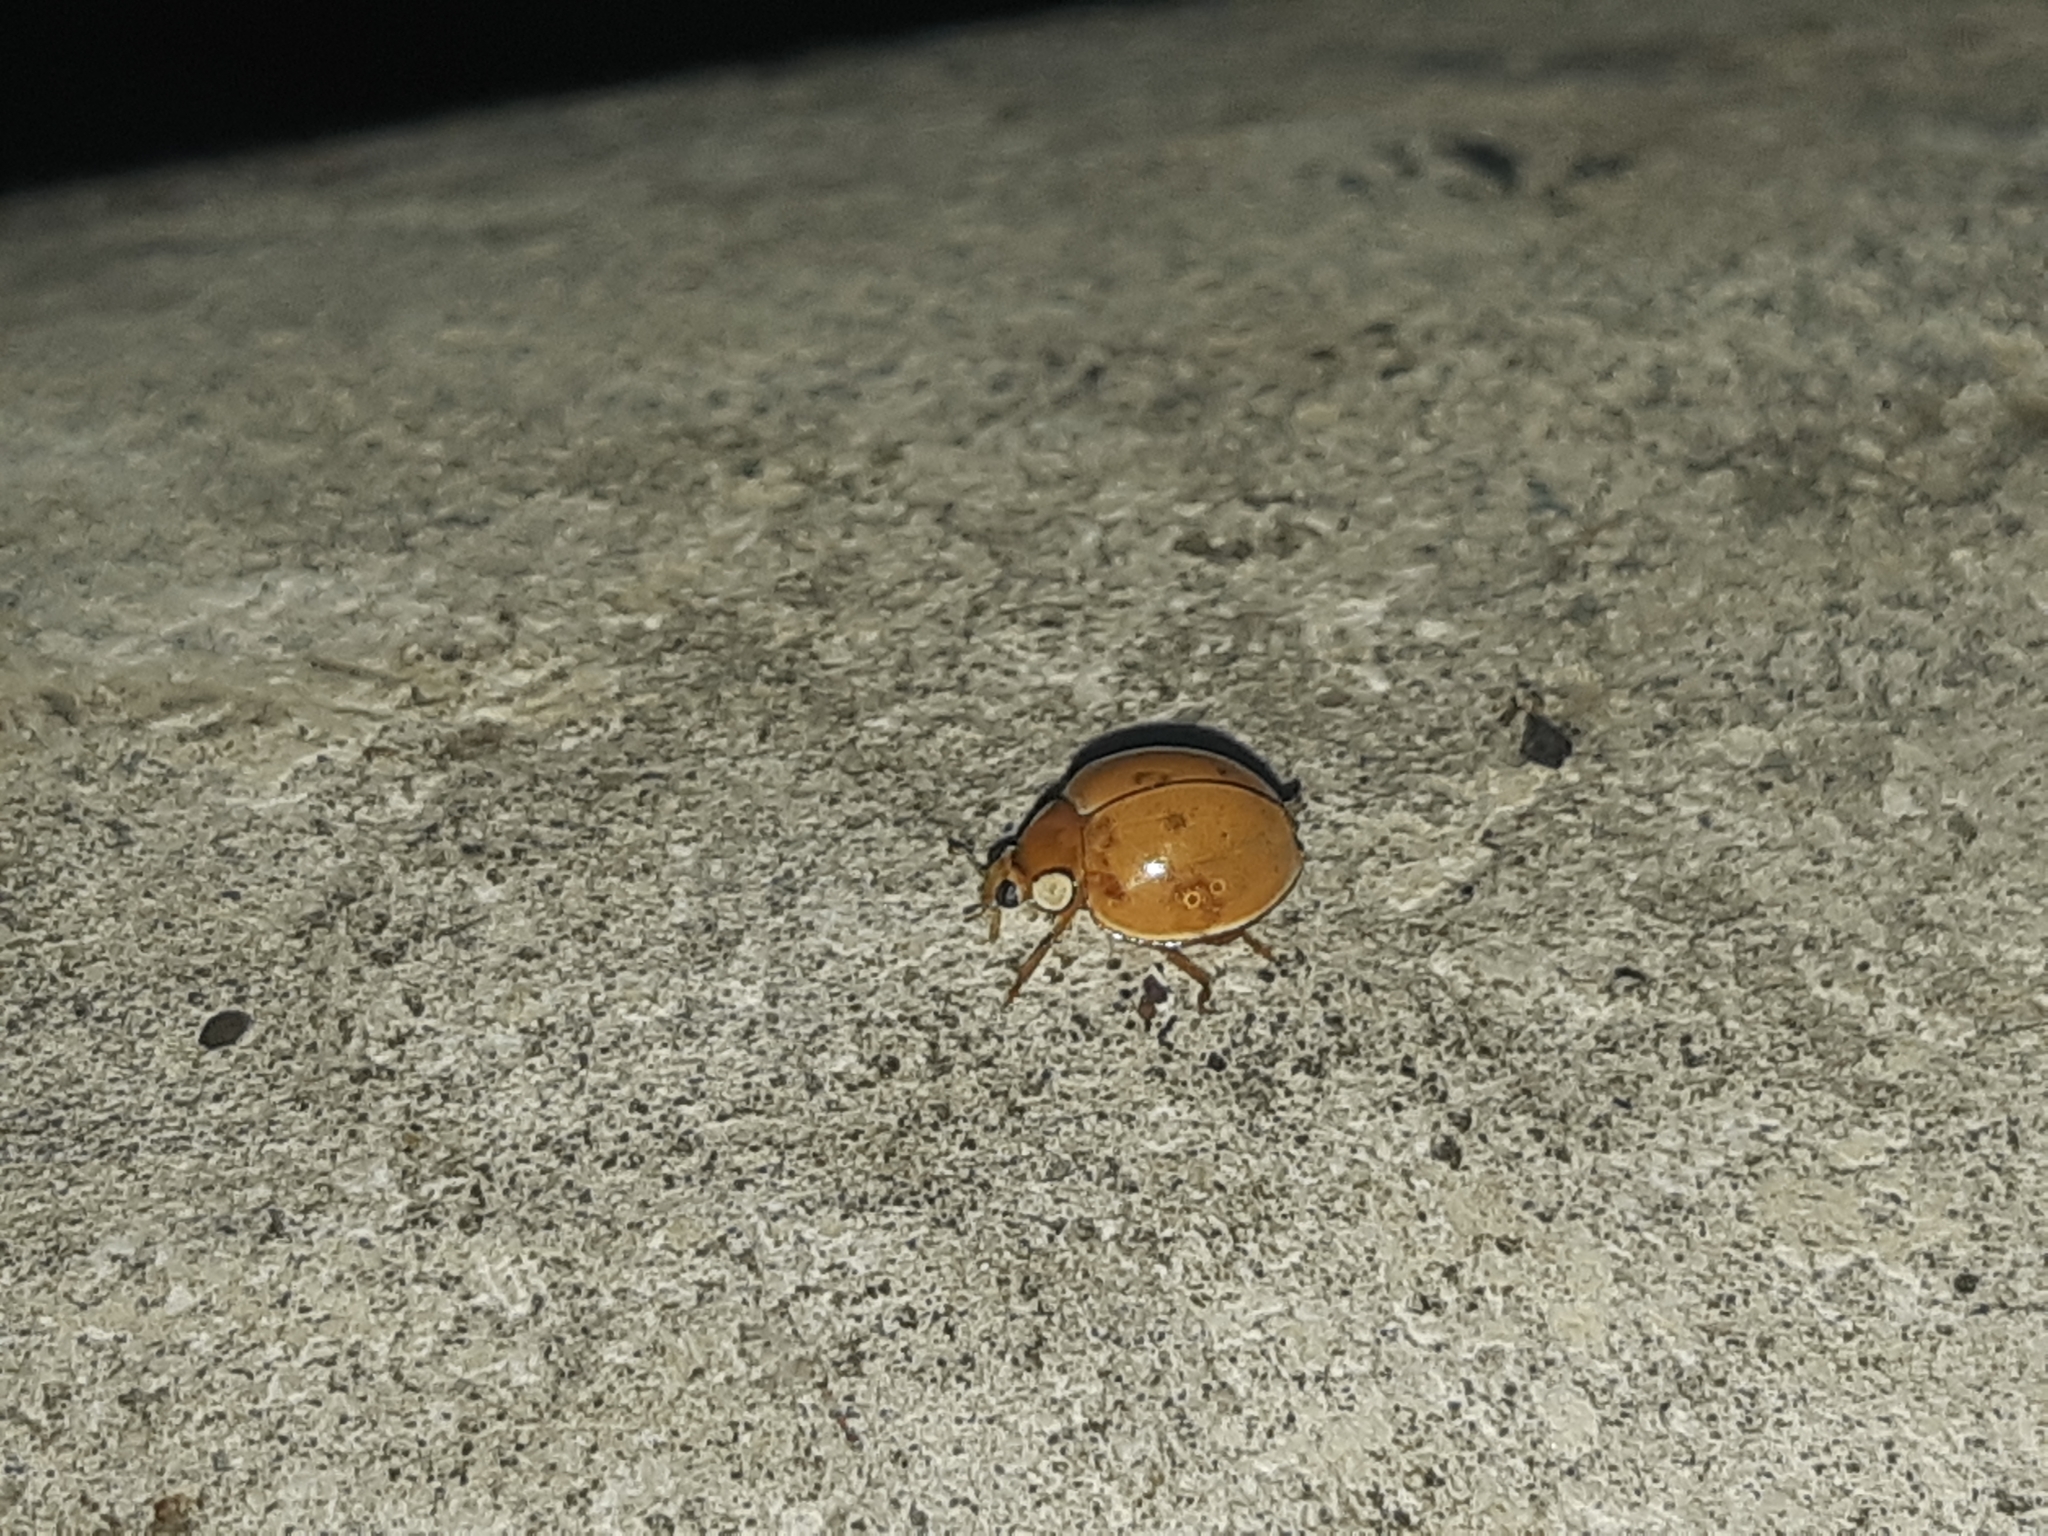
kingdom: Animalia
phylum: Arthropoda
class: Insecta
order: Coleoptera
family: Coccinellidae
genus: Paraneda
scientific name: Paraneda pallidula
